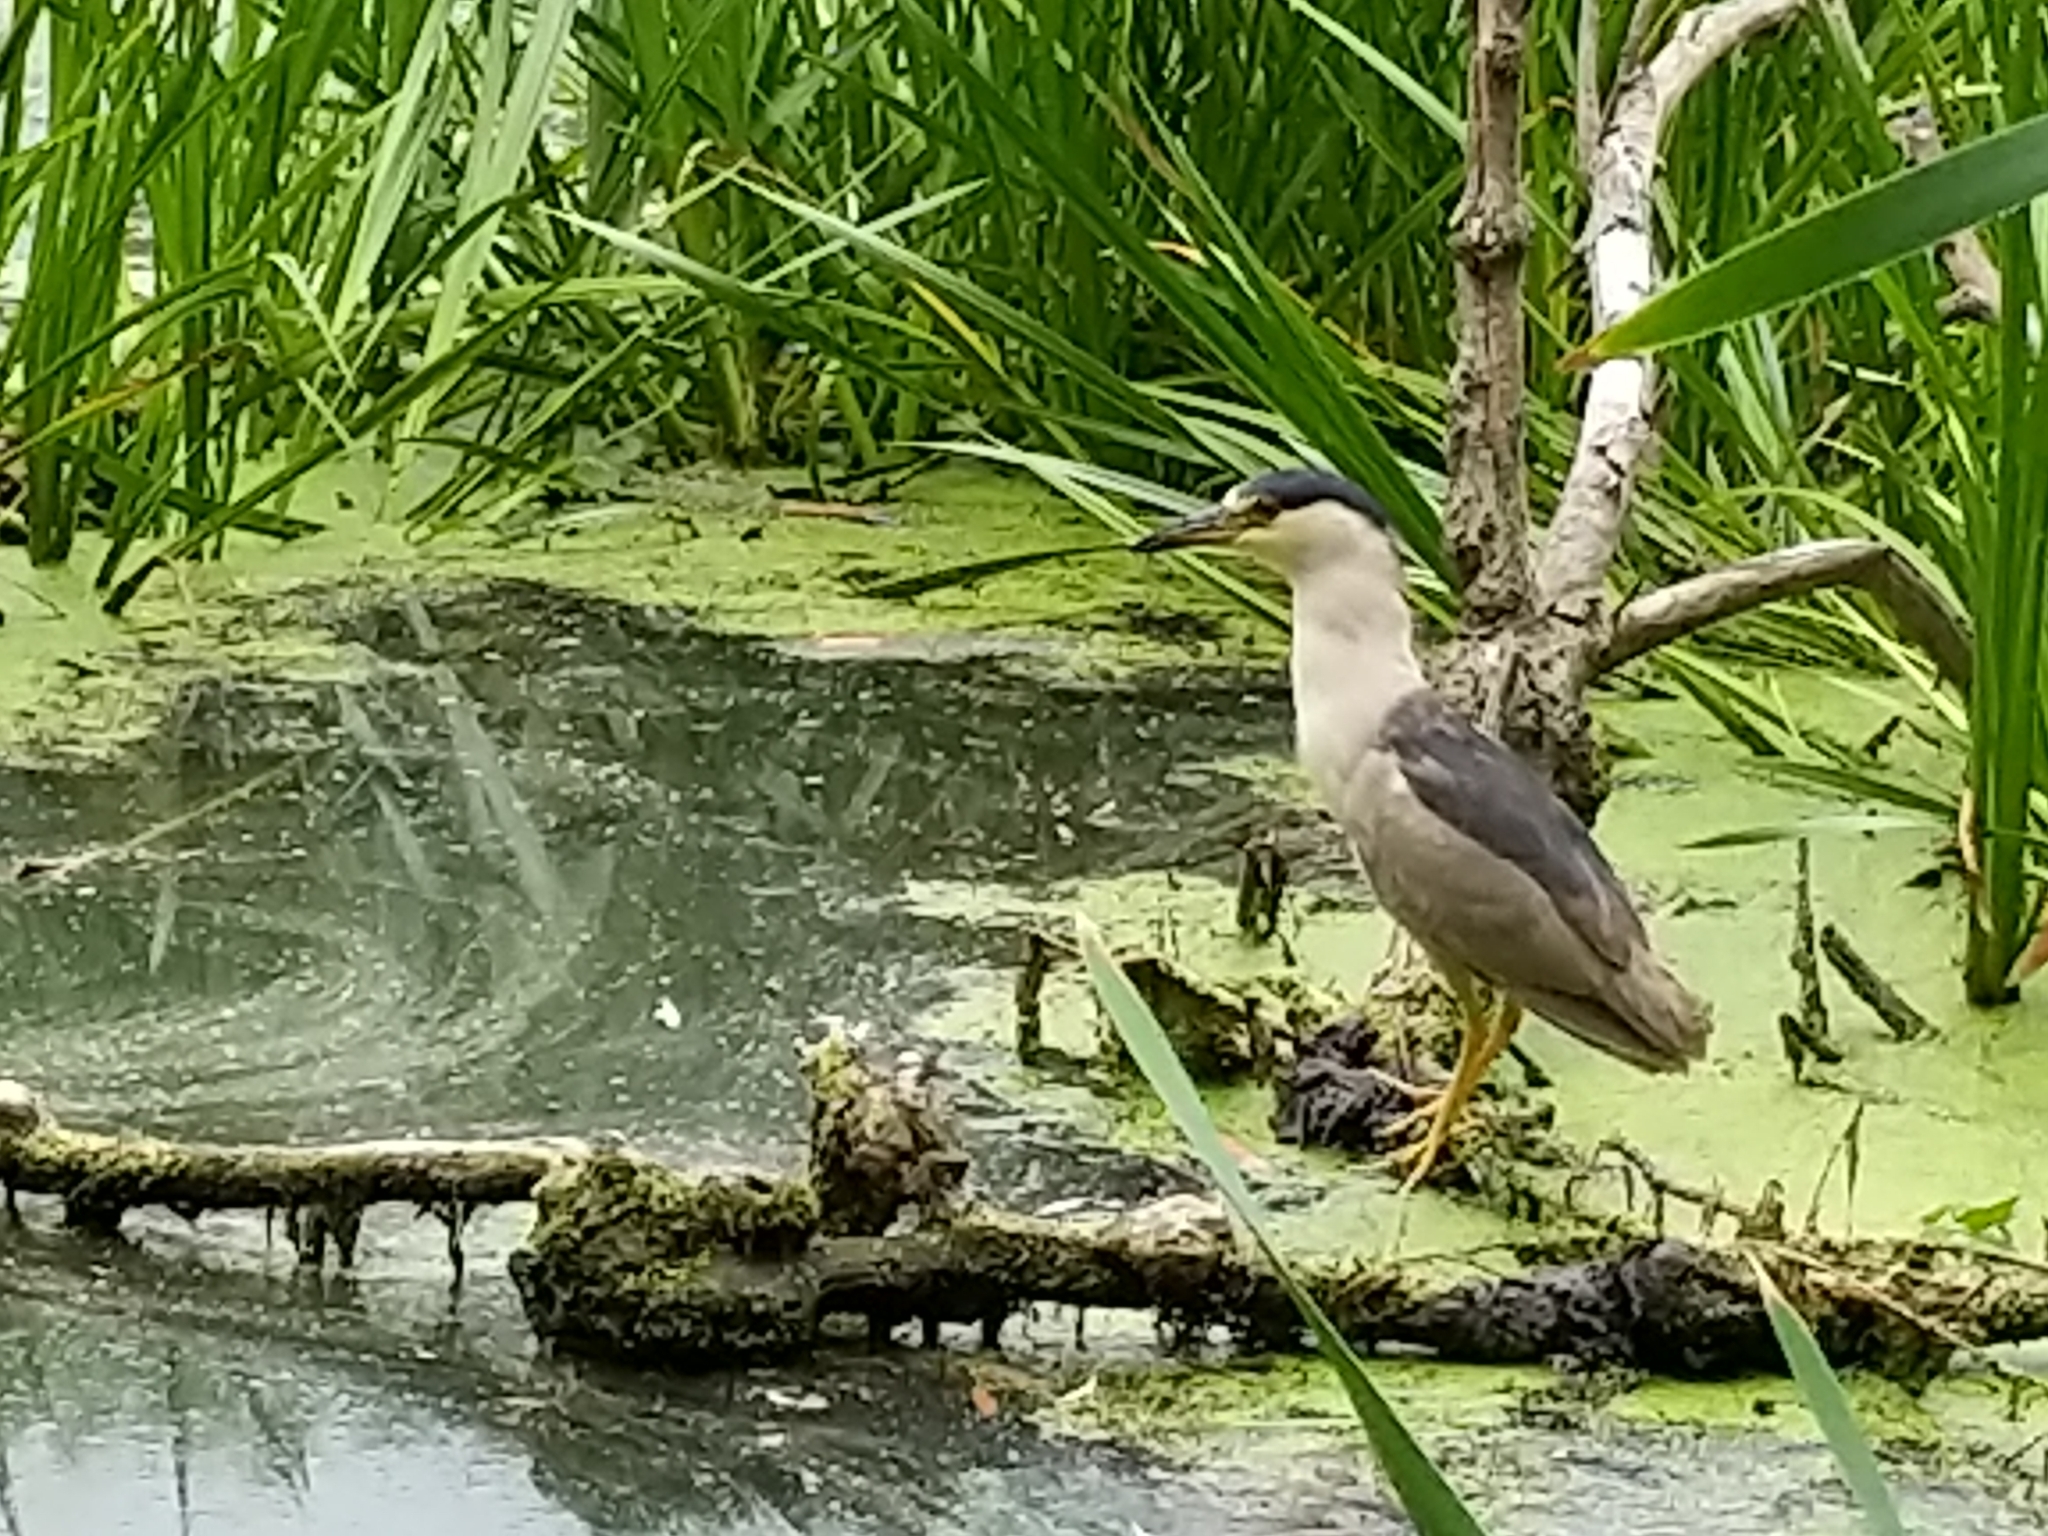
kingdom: Animalia
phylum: Chordata
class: Aves
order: Pelecaniformes
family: Ardeidae
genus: Nycticorax
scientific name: Nycticorax nycticorax
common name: Black-crowned night heron
